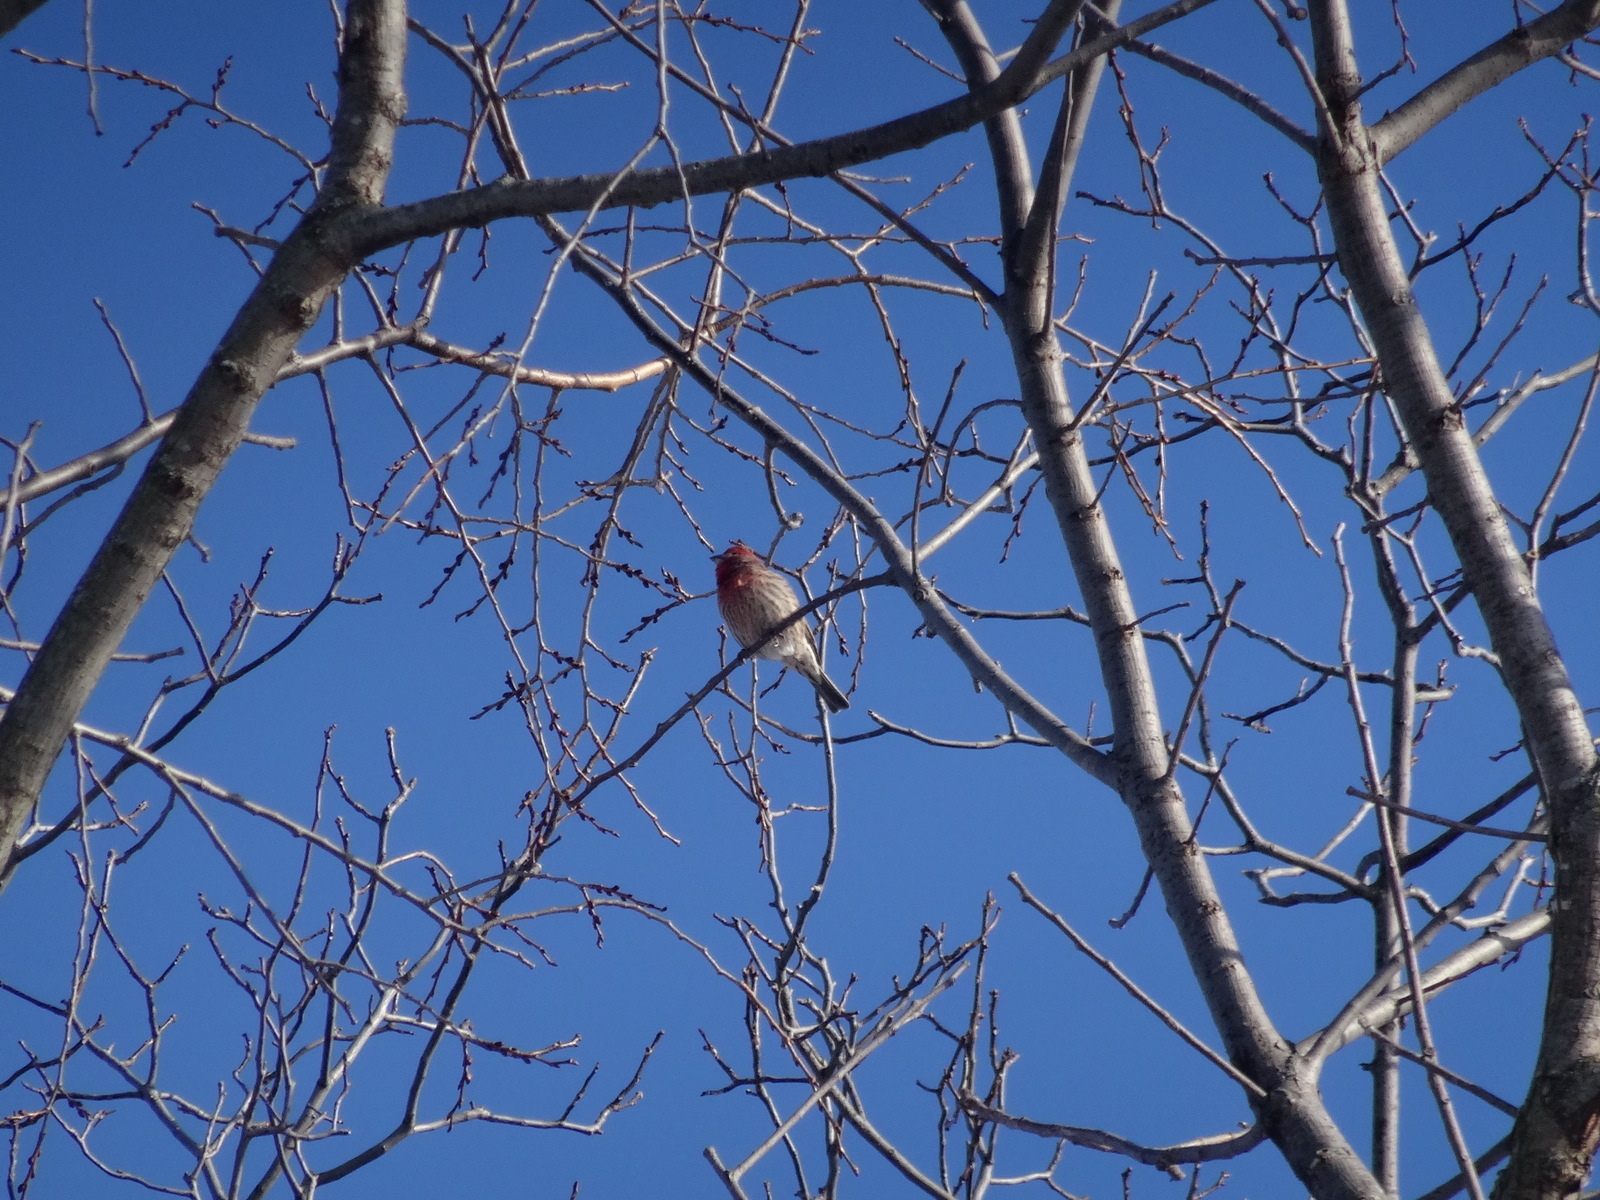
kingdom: Animalia
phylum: Chordata
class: Aves
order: Passeriformes
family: Fringillidae
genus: Haemorhous
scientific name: Haemorhous mexicanus
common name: House finch
